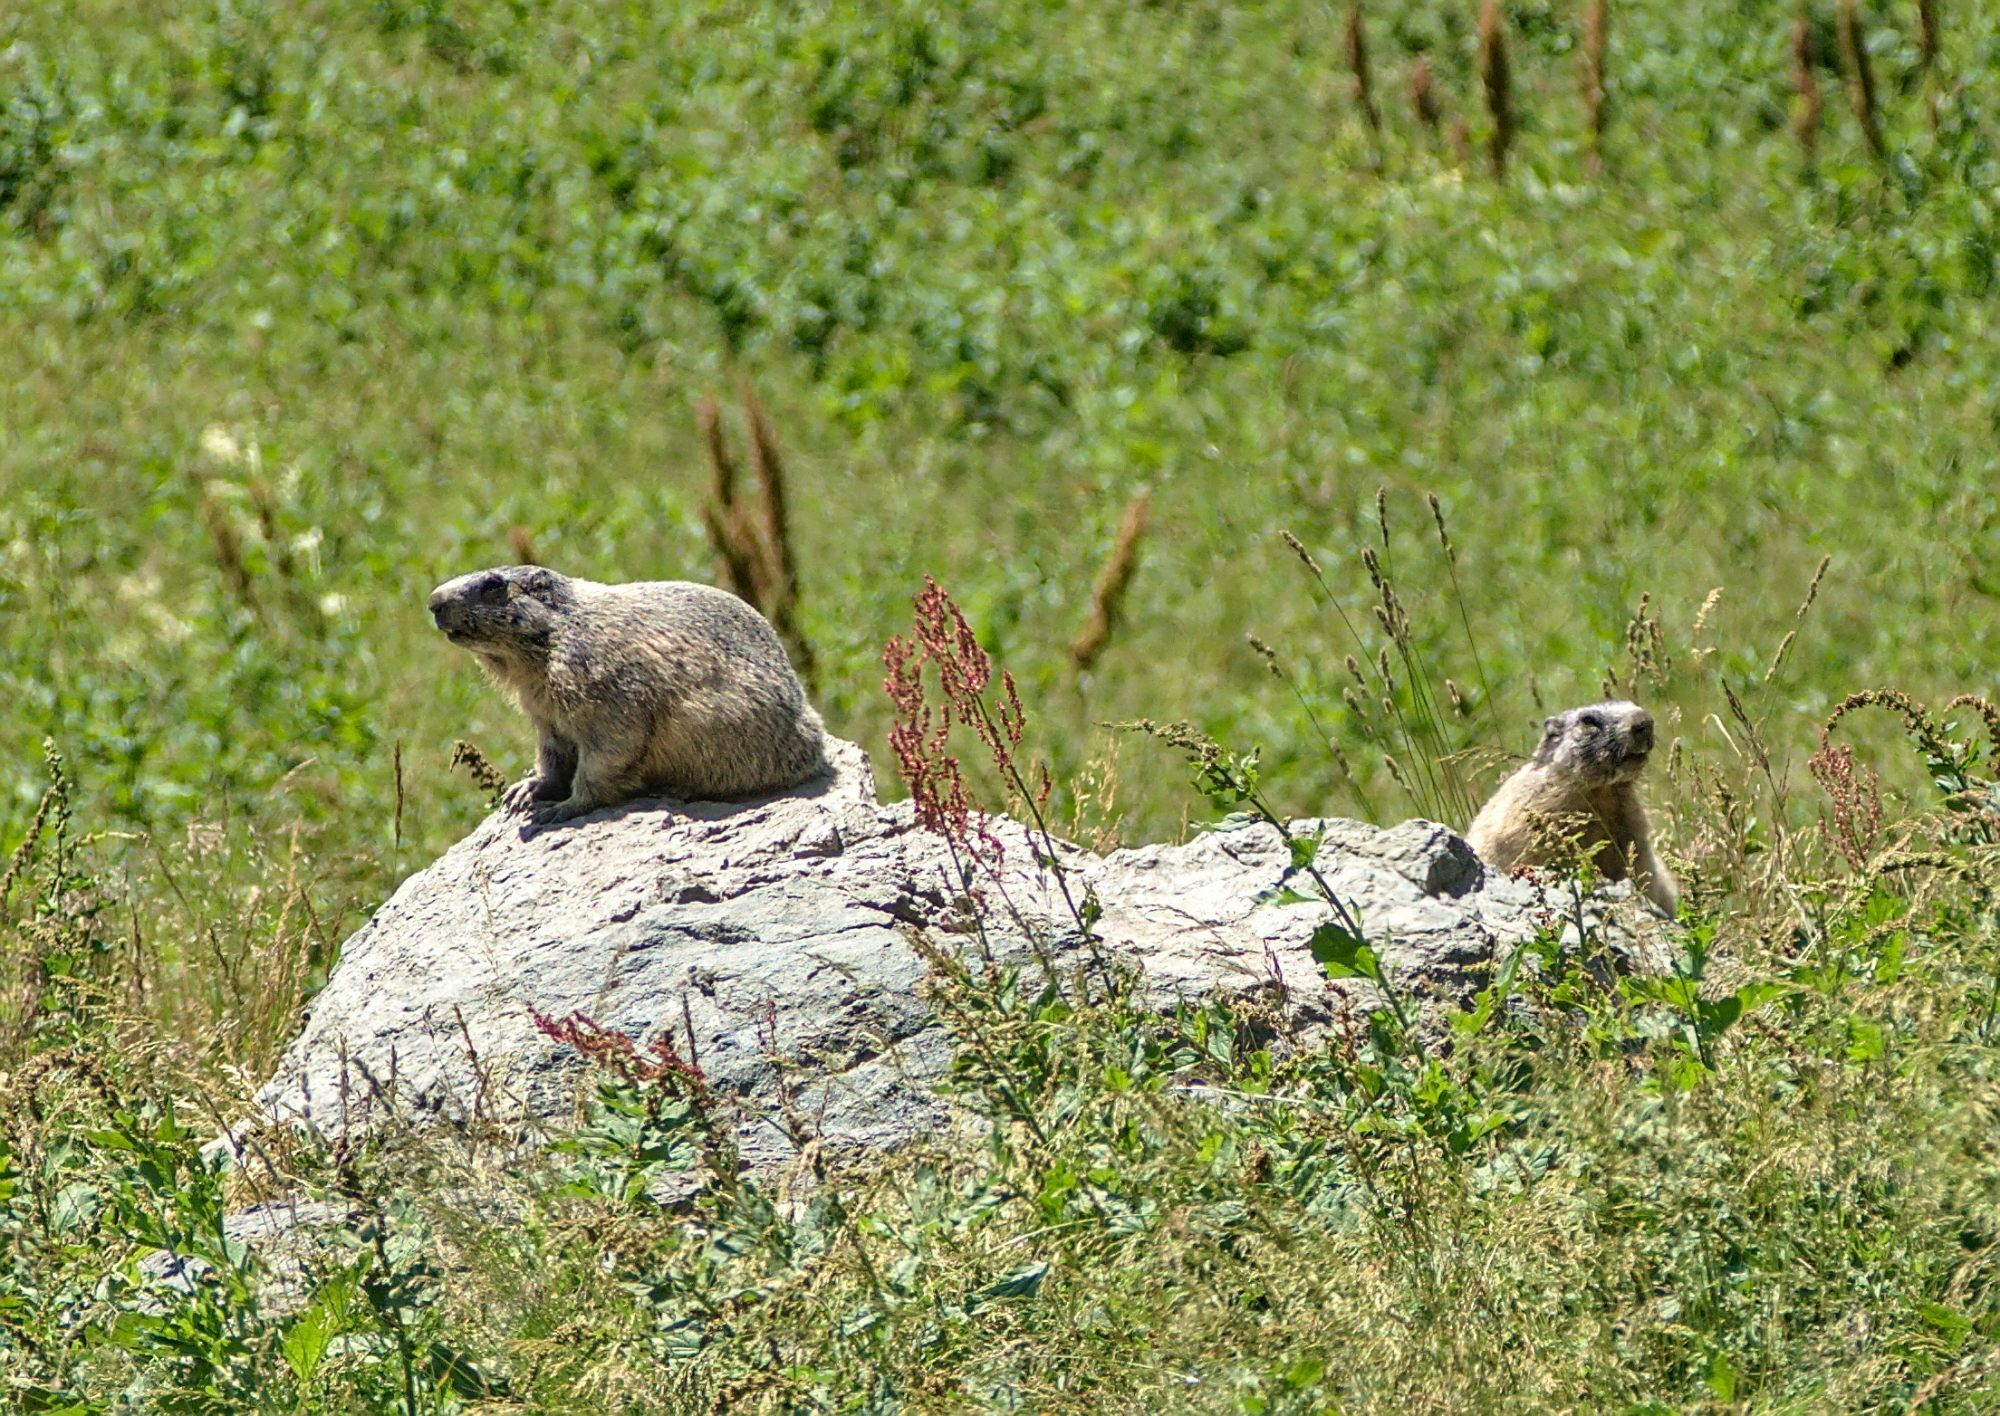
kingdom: Animalia
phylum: Chordata
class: Mammalia
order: Rodentia
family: Sciuridae
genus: Marmota
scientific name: Marmota marmota
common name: Alpine marmot
